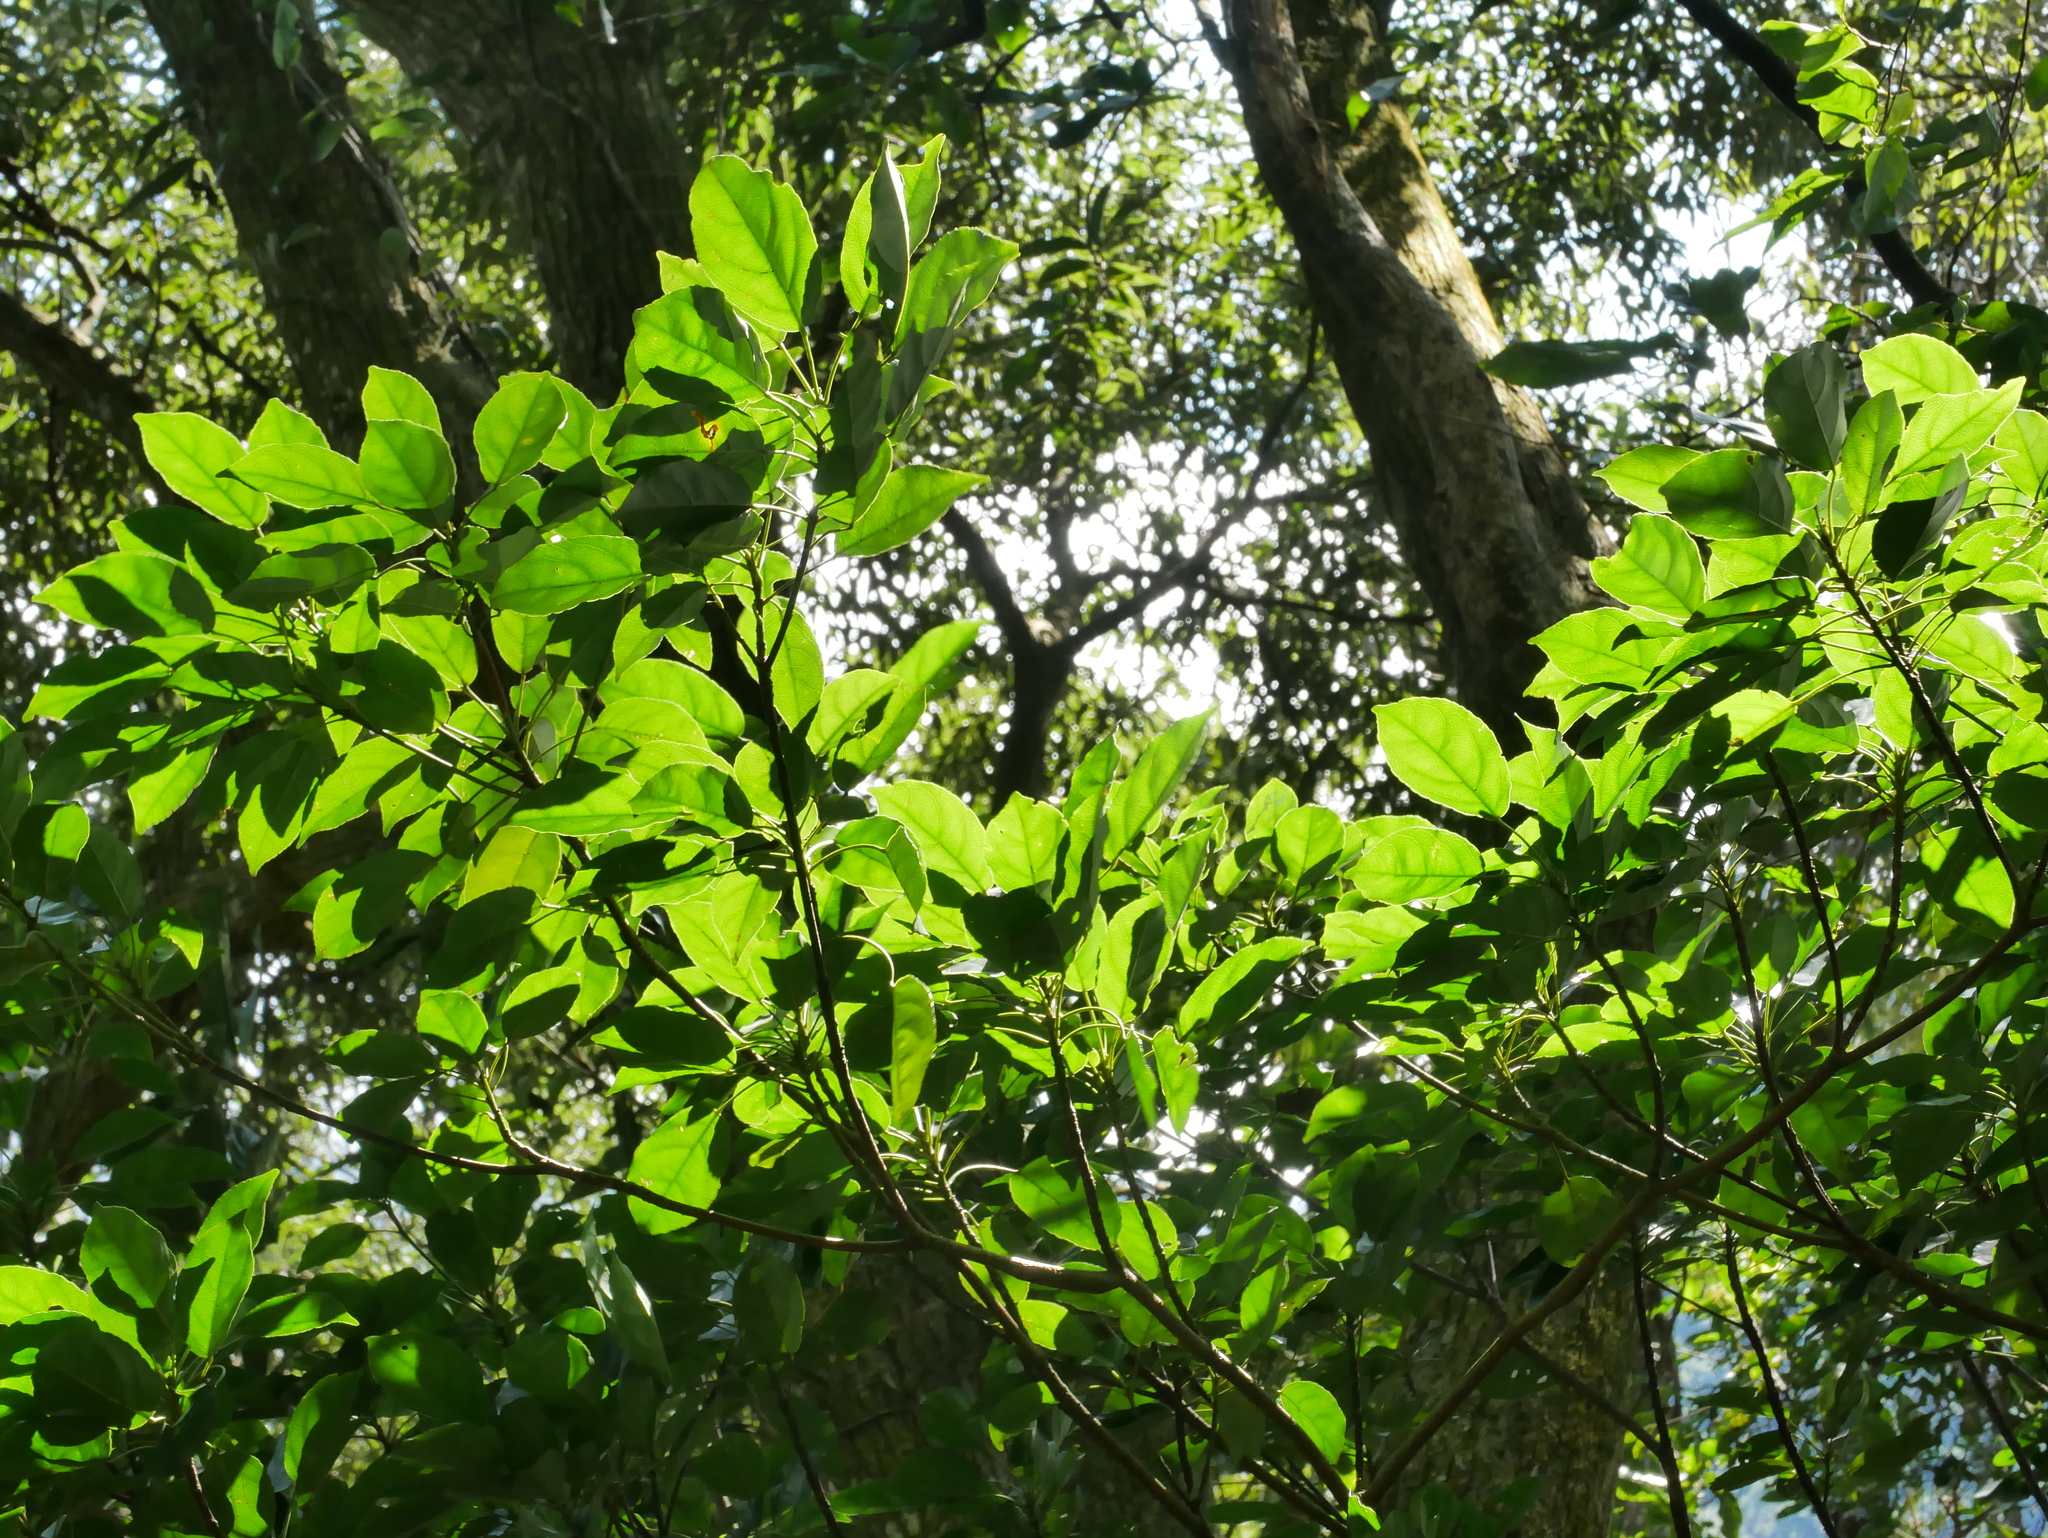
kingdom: Plantae
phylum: Tracheophyta
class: Magnoliopsida
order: Oxalidales
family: Elaeocarpaceae
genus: Elaeocarpus
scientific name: Elaeocarpus japonicus
